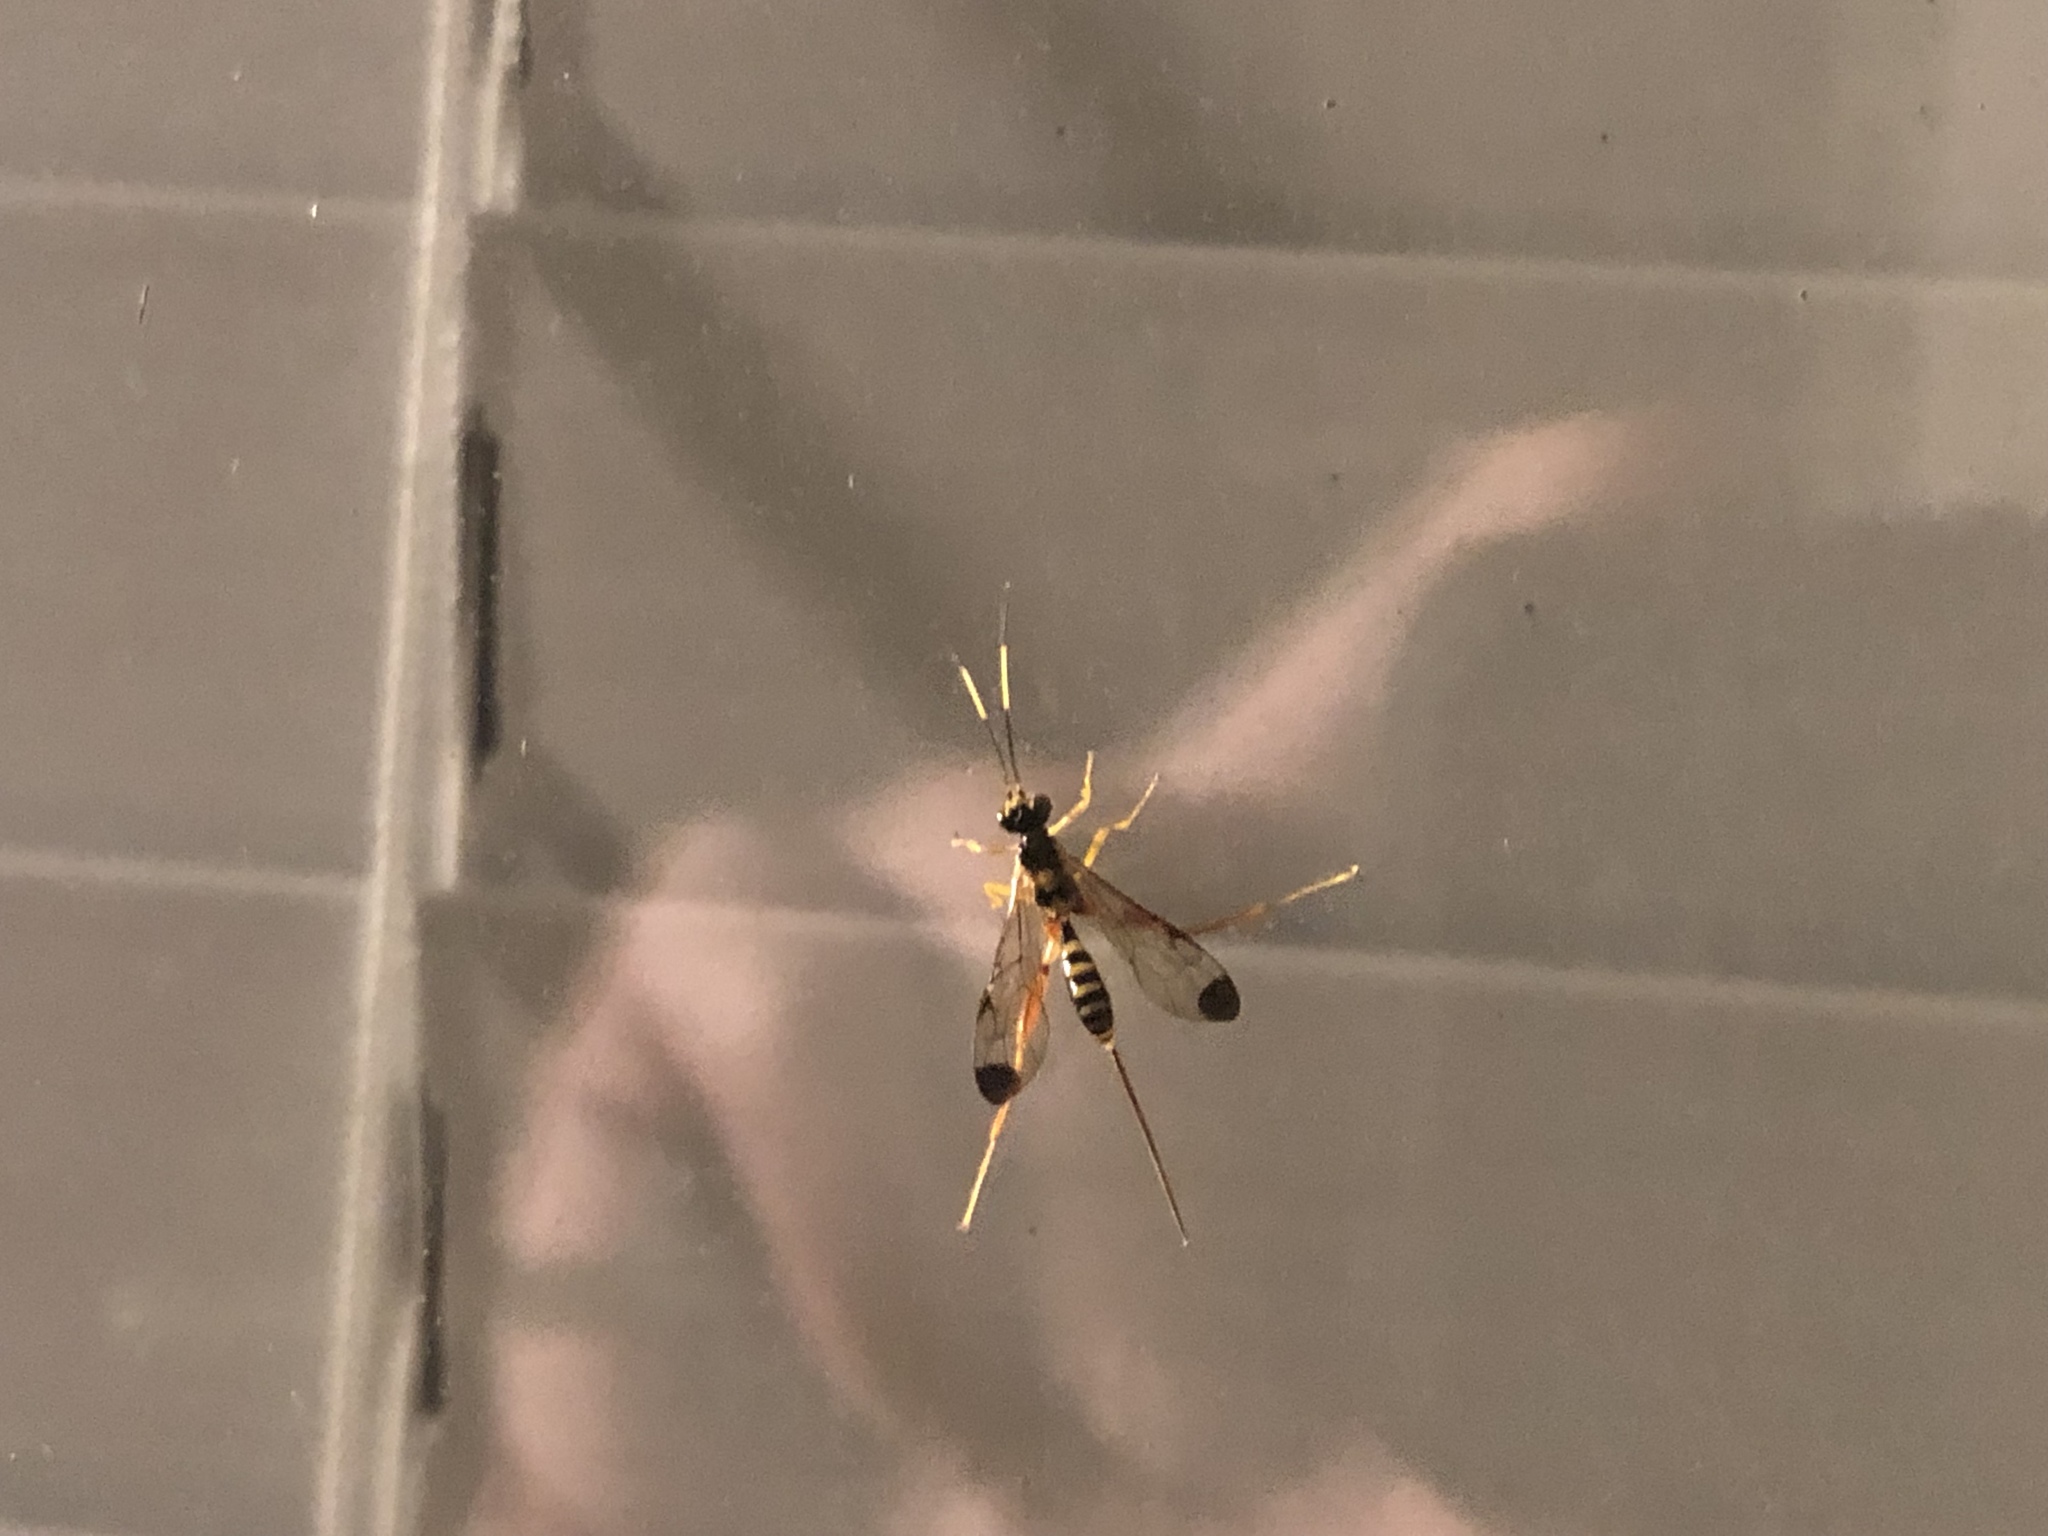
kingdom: Animalia
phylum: Arthropoda
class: Insecta
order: Hymenoptera
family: Ichneumonidae
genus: Spilopteron
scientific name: Spilopteron occiputale
